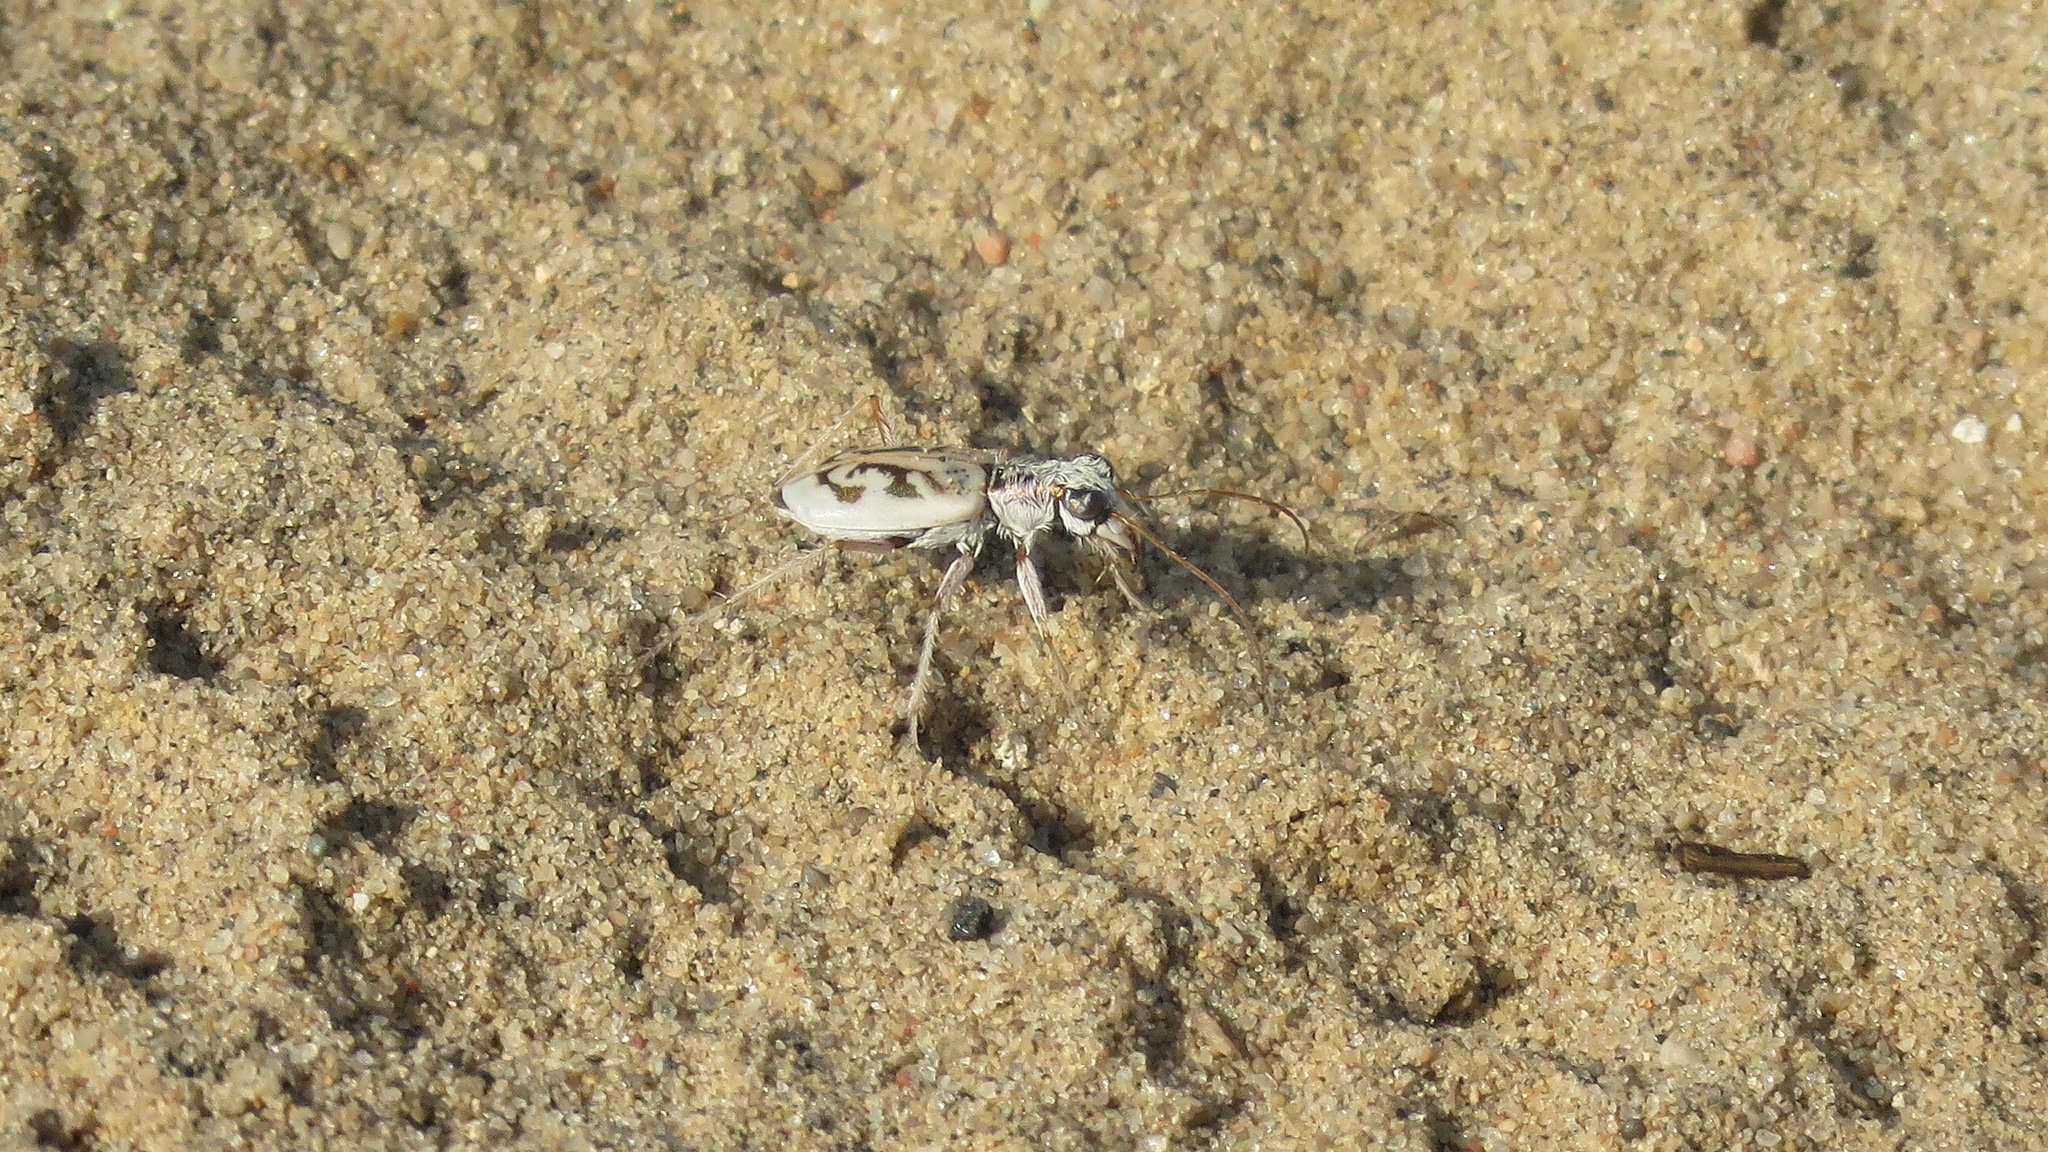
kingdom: Animalia
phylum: Arthropoda
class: Insecta
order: Coleoptera
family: Carabidae
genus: Ellipsoptera
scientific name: Ellipsoptera lepida
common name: Ghost tiger beetle
